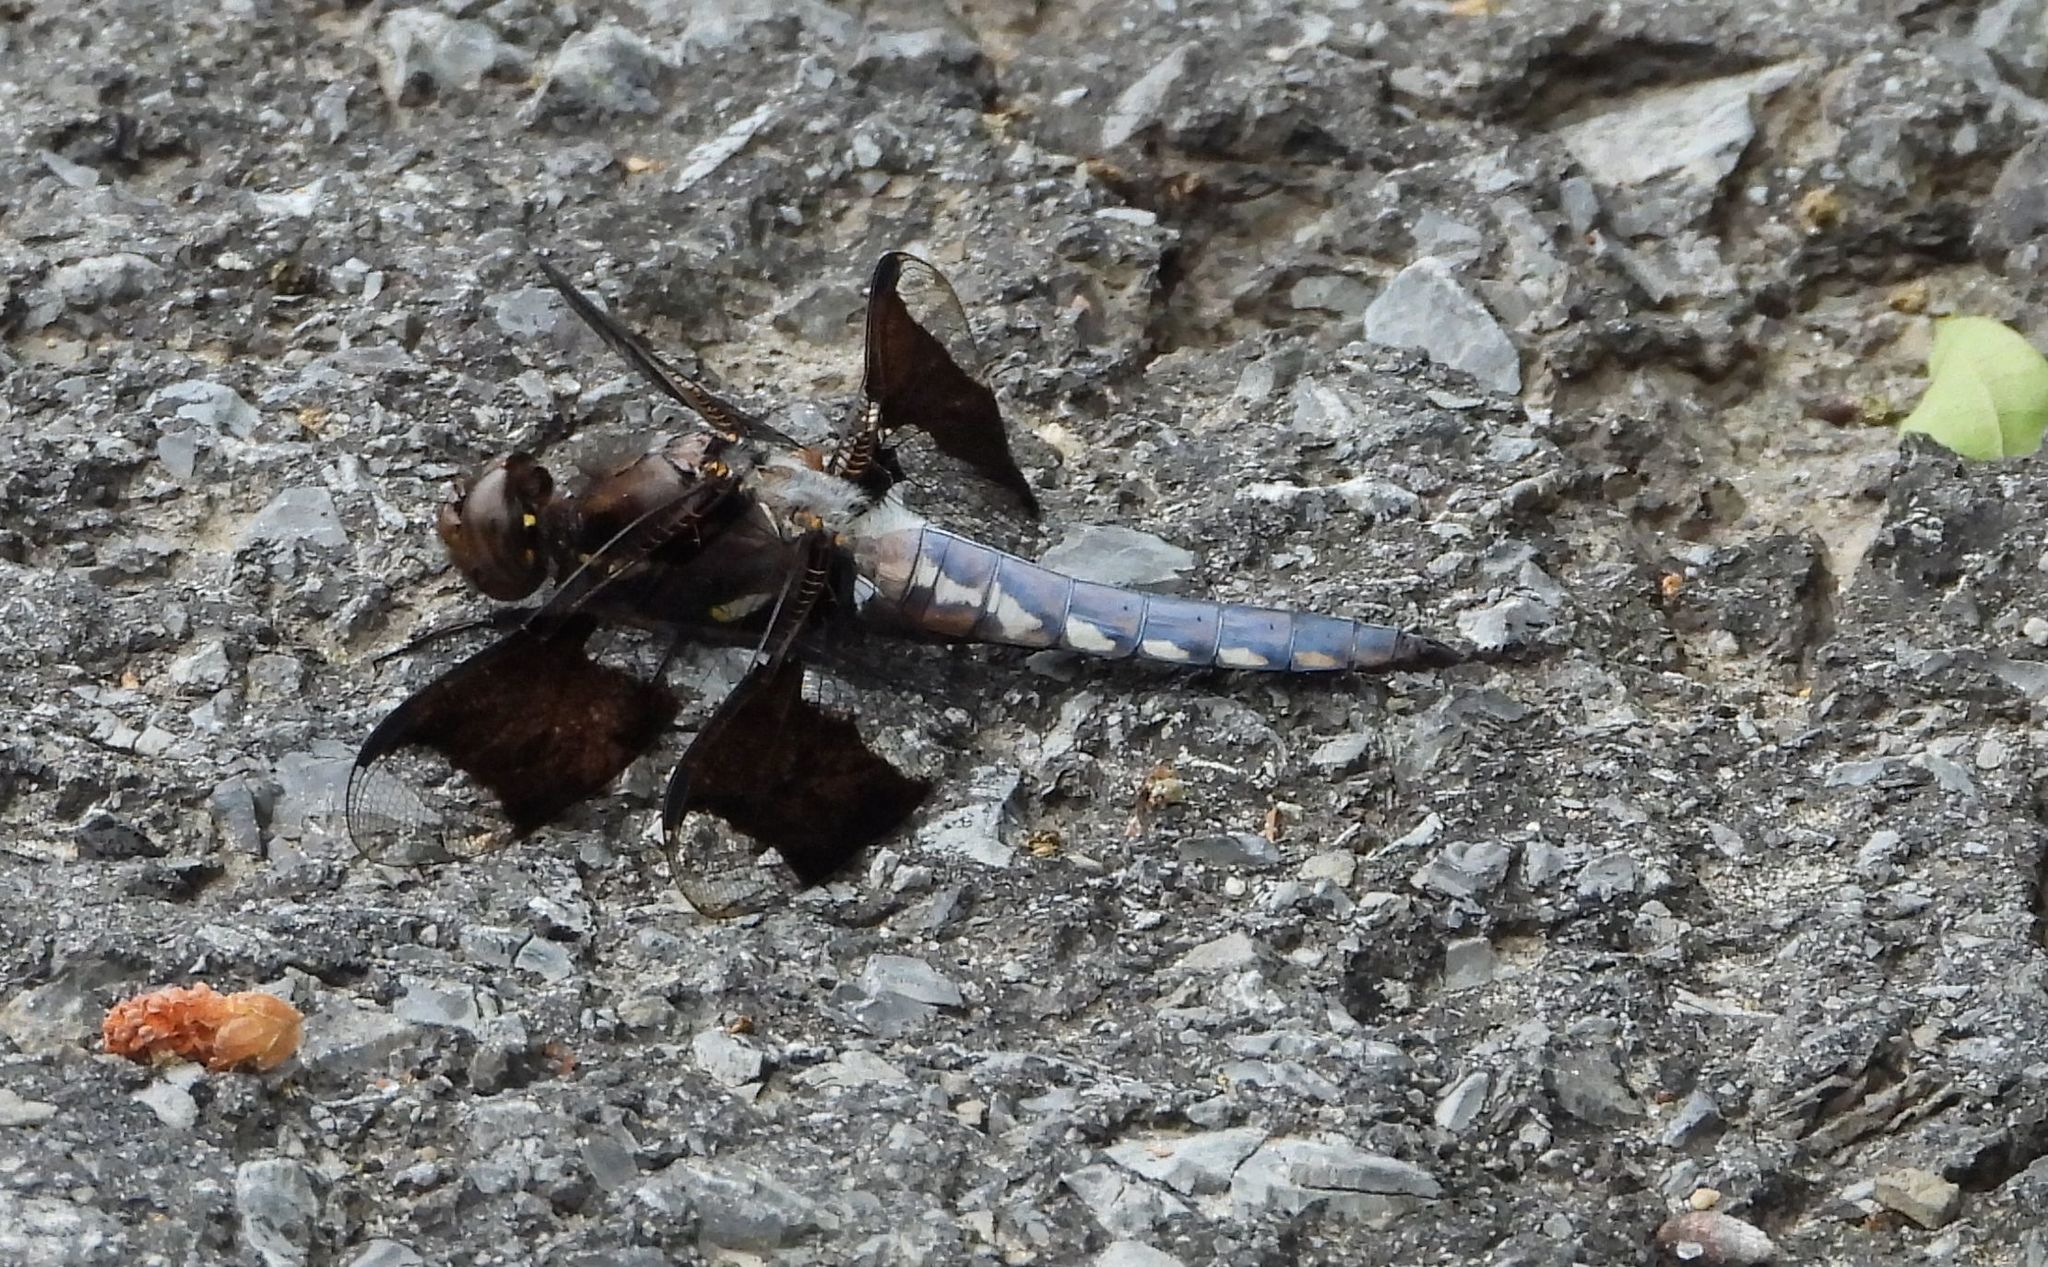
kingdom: Animalia
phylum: Arthropoda
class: Insecta
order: Odonata
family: Libellulidae
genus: Plathemis
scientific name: Plathemis lydia
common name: Common whitetail
